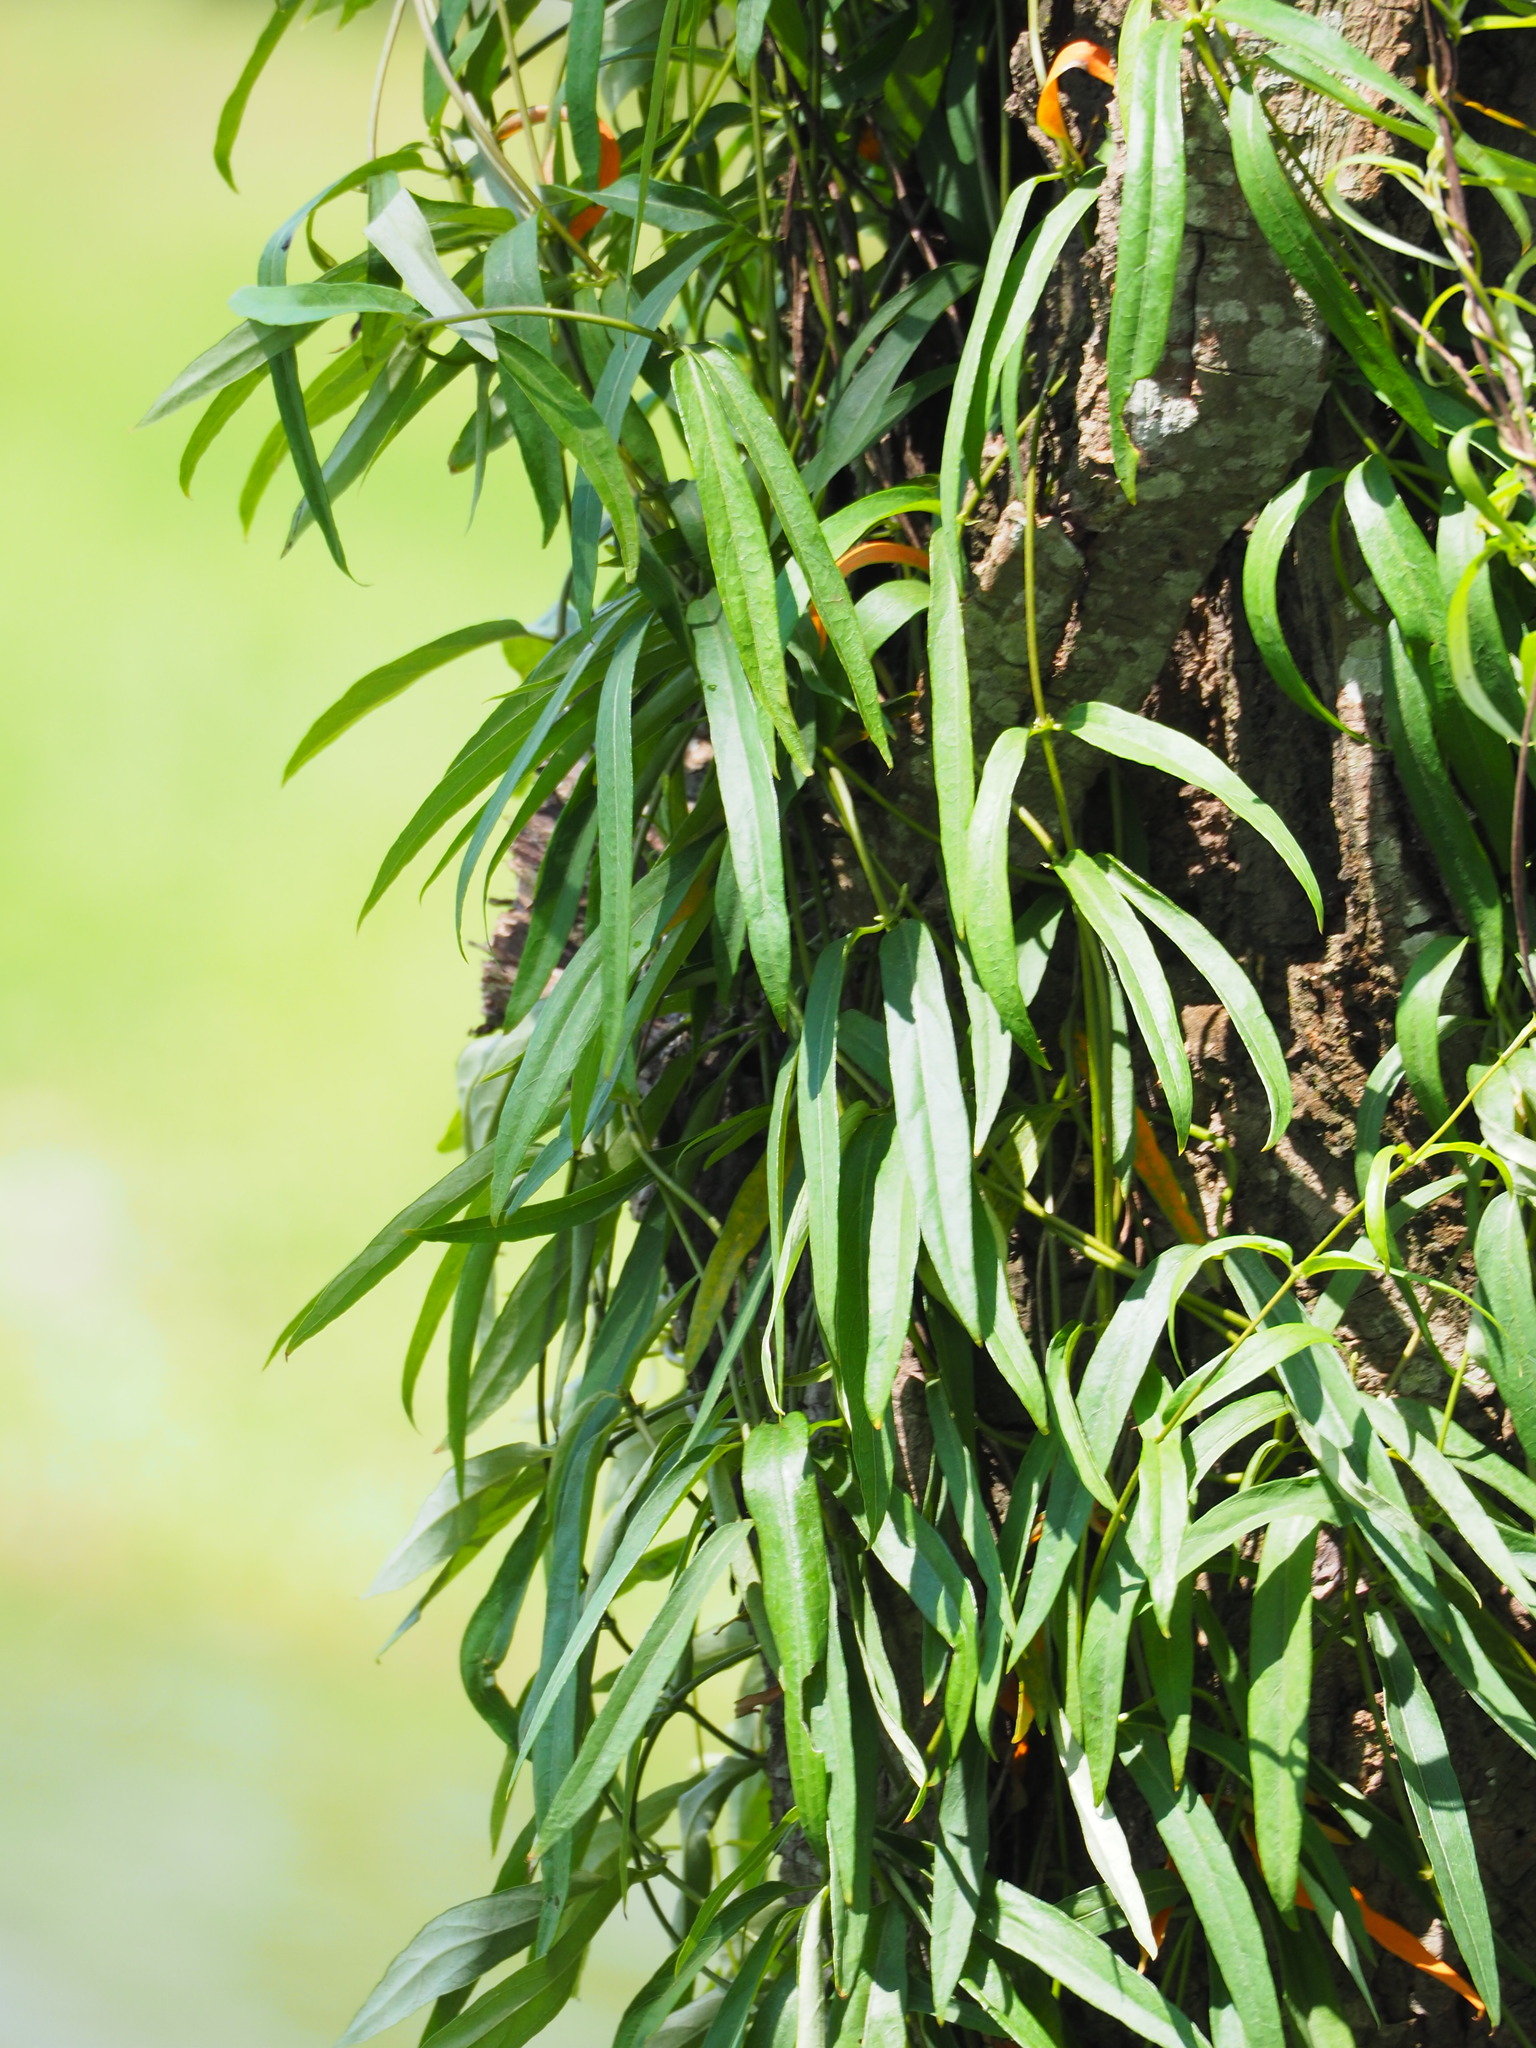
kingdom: Plantae
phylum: Tracheophyta
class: Magnoliopsida
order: Gentianales
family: Rubiaceae
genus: Paederia
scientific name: Paederia foetida
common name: Stinkvine
